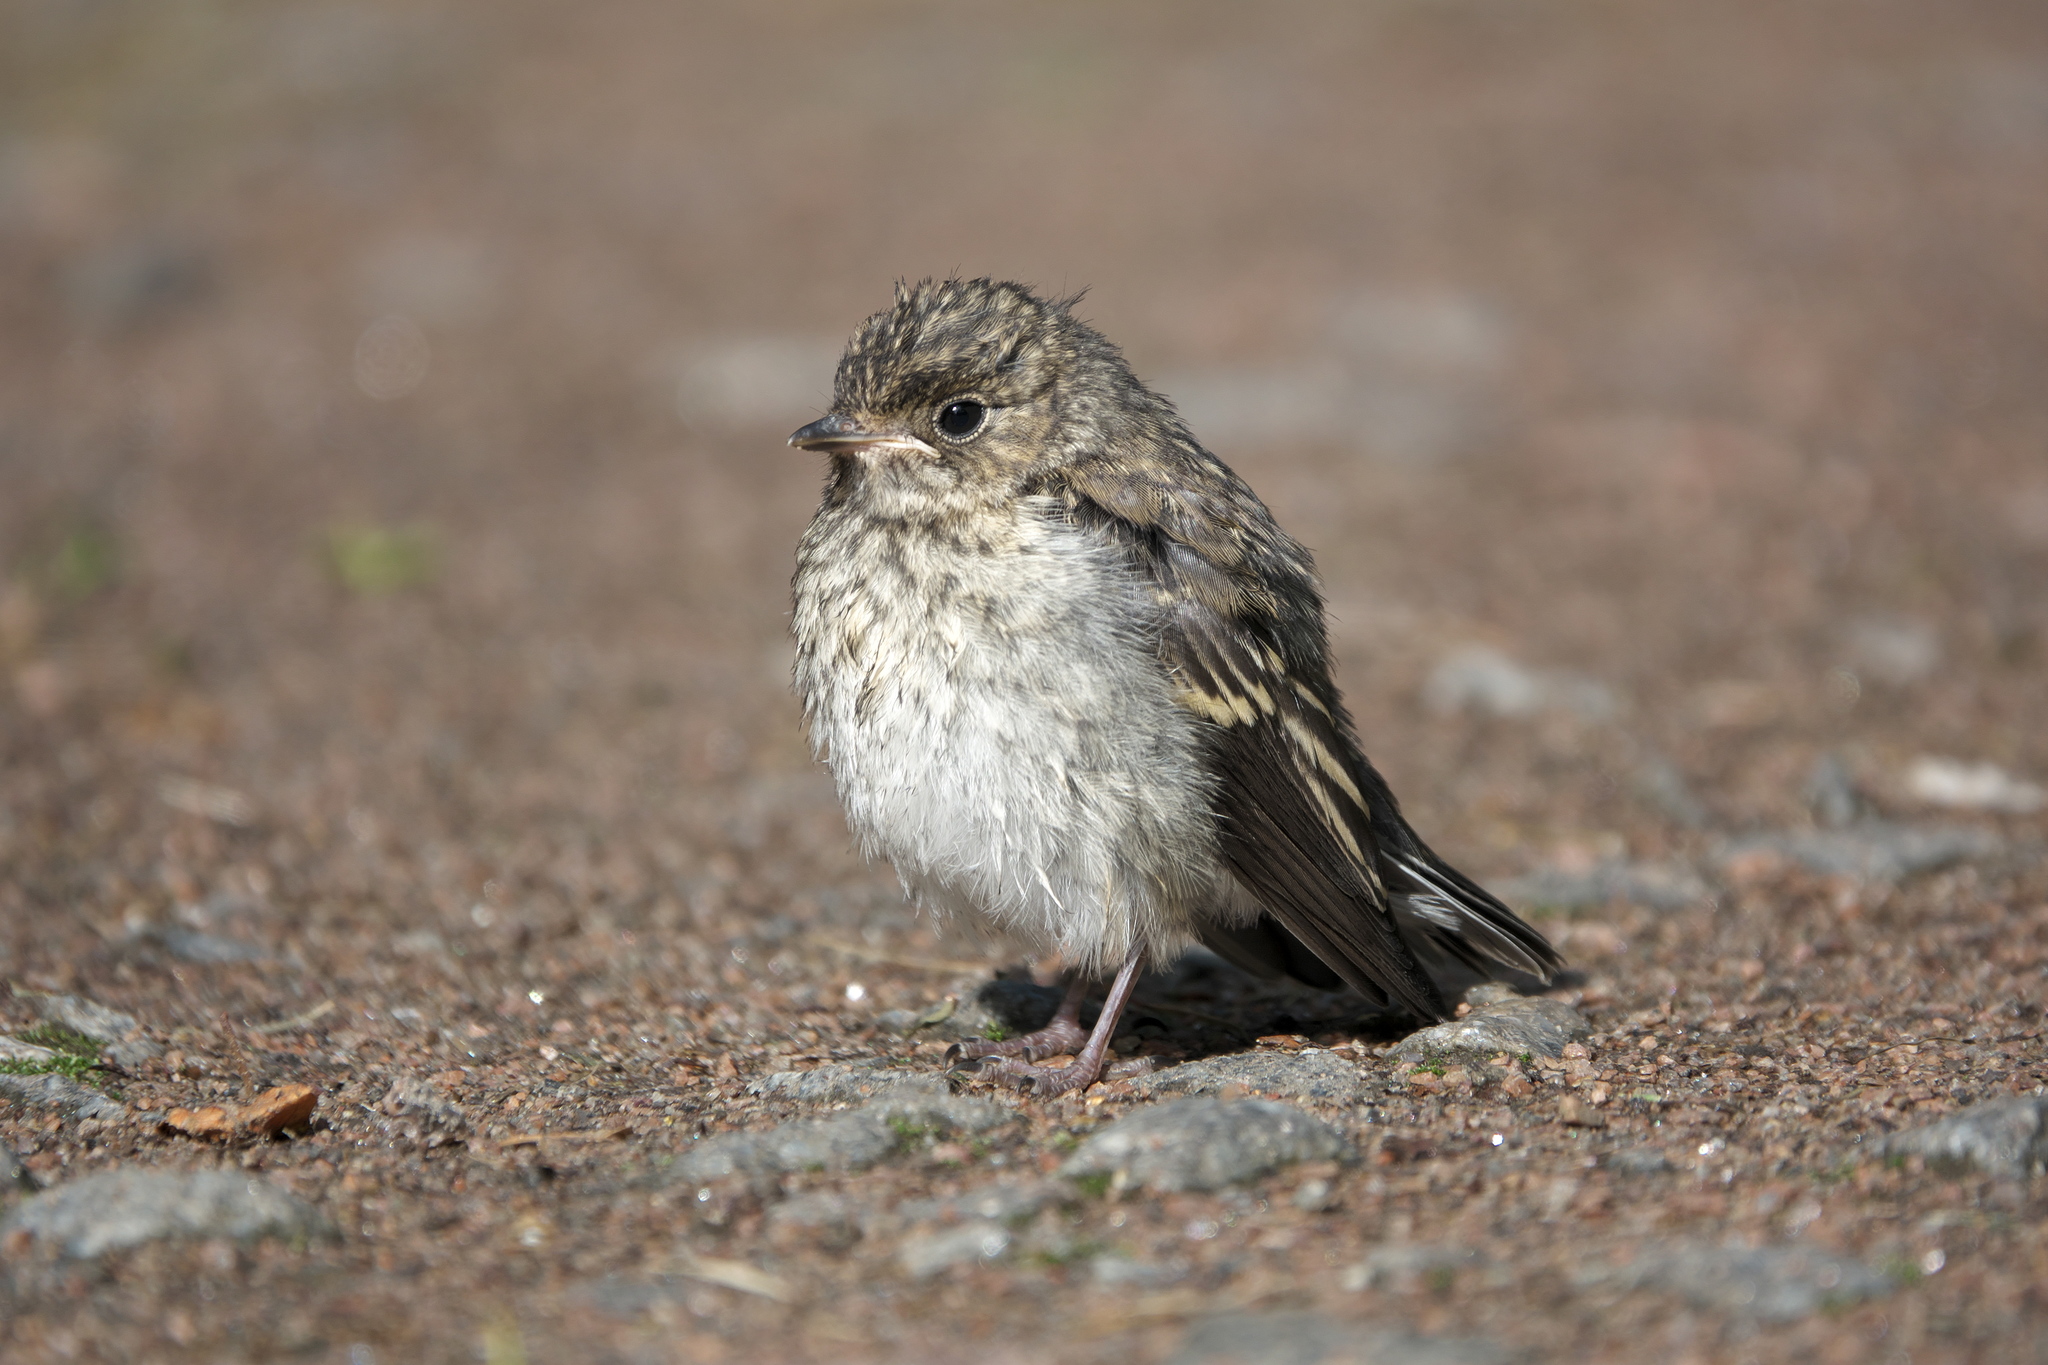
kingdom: Animalia
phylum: Chordata
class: Aves
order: Passeriformes
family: Muscicapidae
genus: Muscicapa
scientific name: Muscicapa striata
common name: Spotted flycatcher
